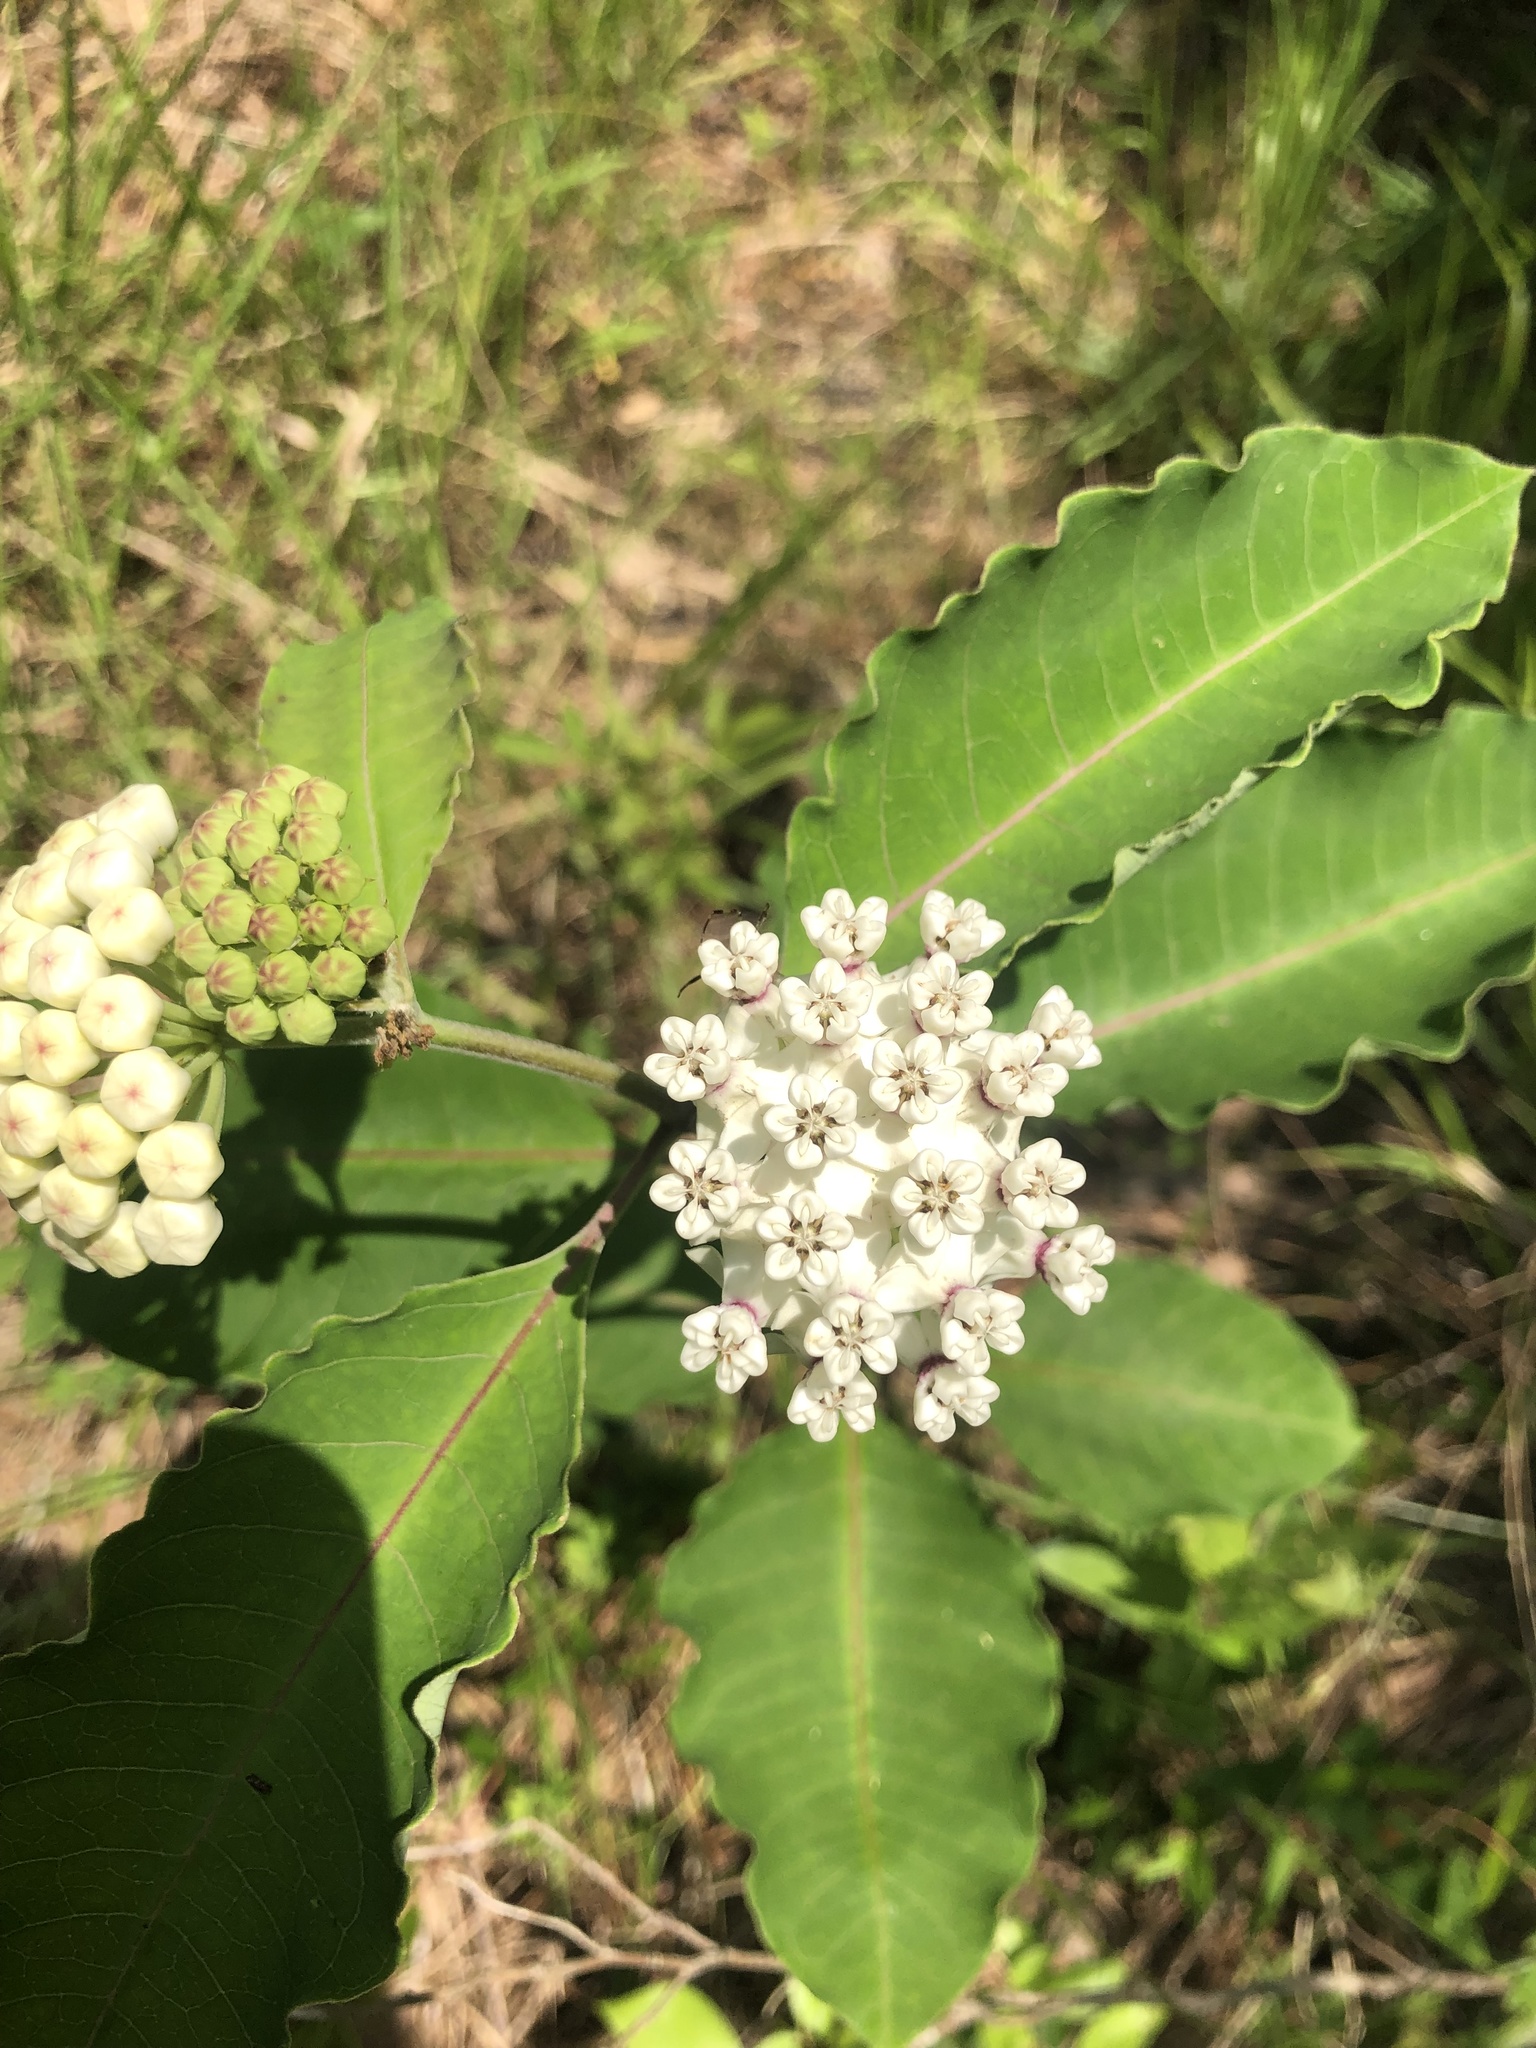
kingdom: Plantae
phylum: Tracheophyta
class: Magnoliopsida
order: Gentianales
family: Apocynaceae
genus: Asclepias
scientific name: Asclepias variegata
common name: Variegated milkweed
